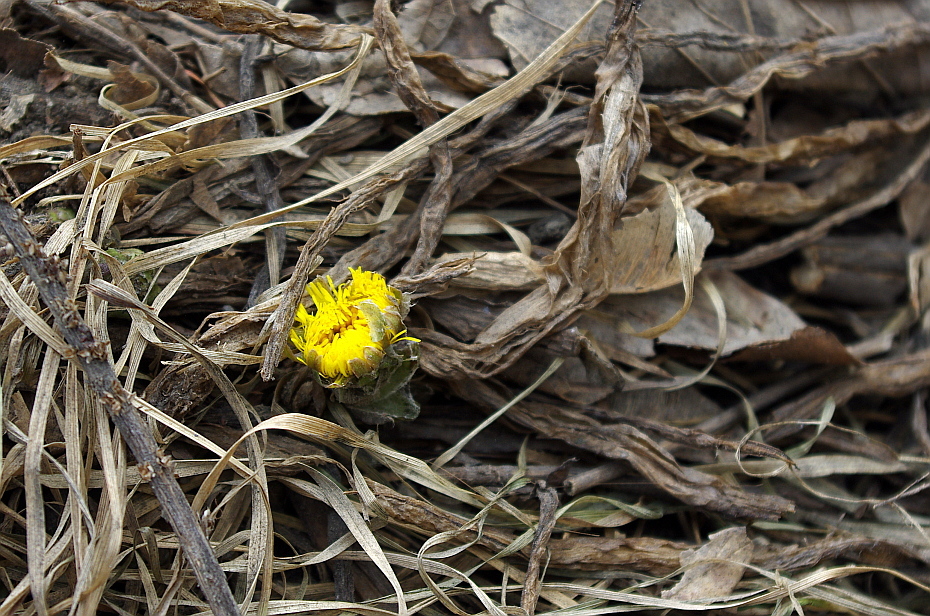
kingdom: Plantae
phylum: Tracheophyta
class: Magnoliopsida
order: Asterales
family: Asteraceae
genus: Tussilago
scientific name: Tussilago farfara
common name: Coltsfoot
